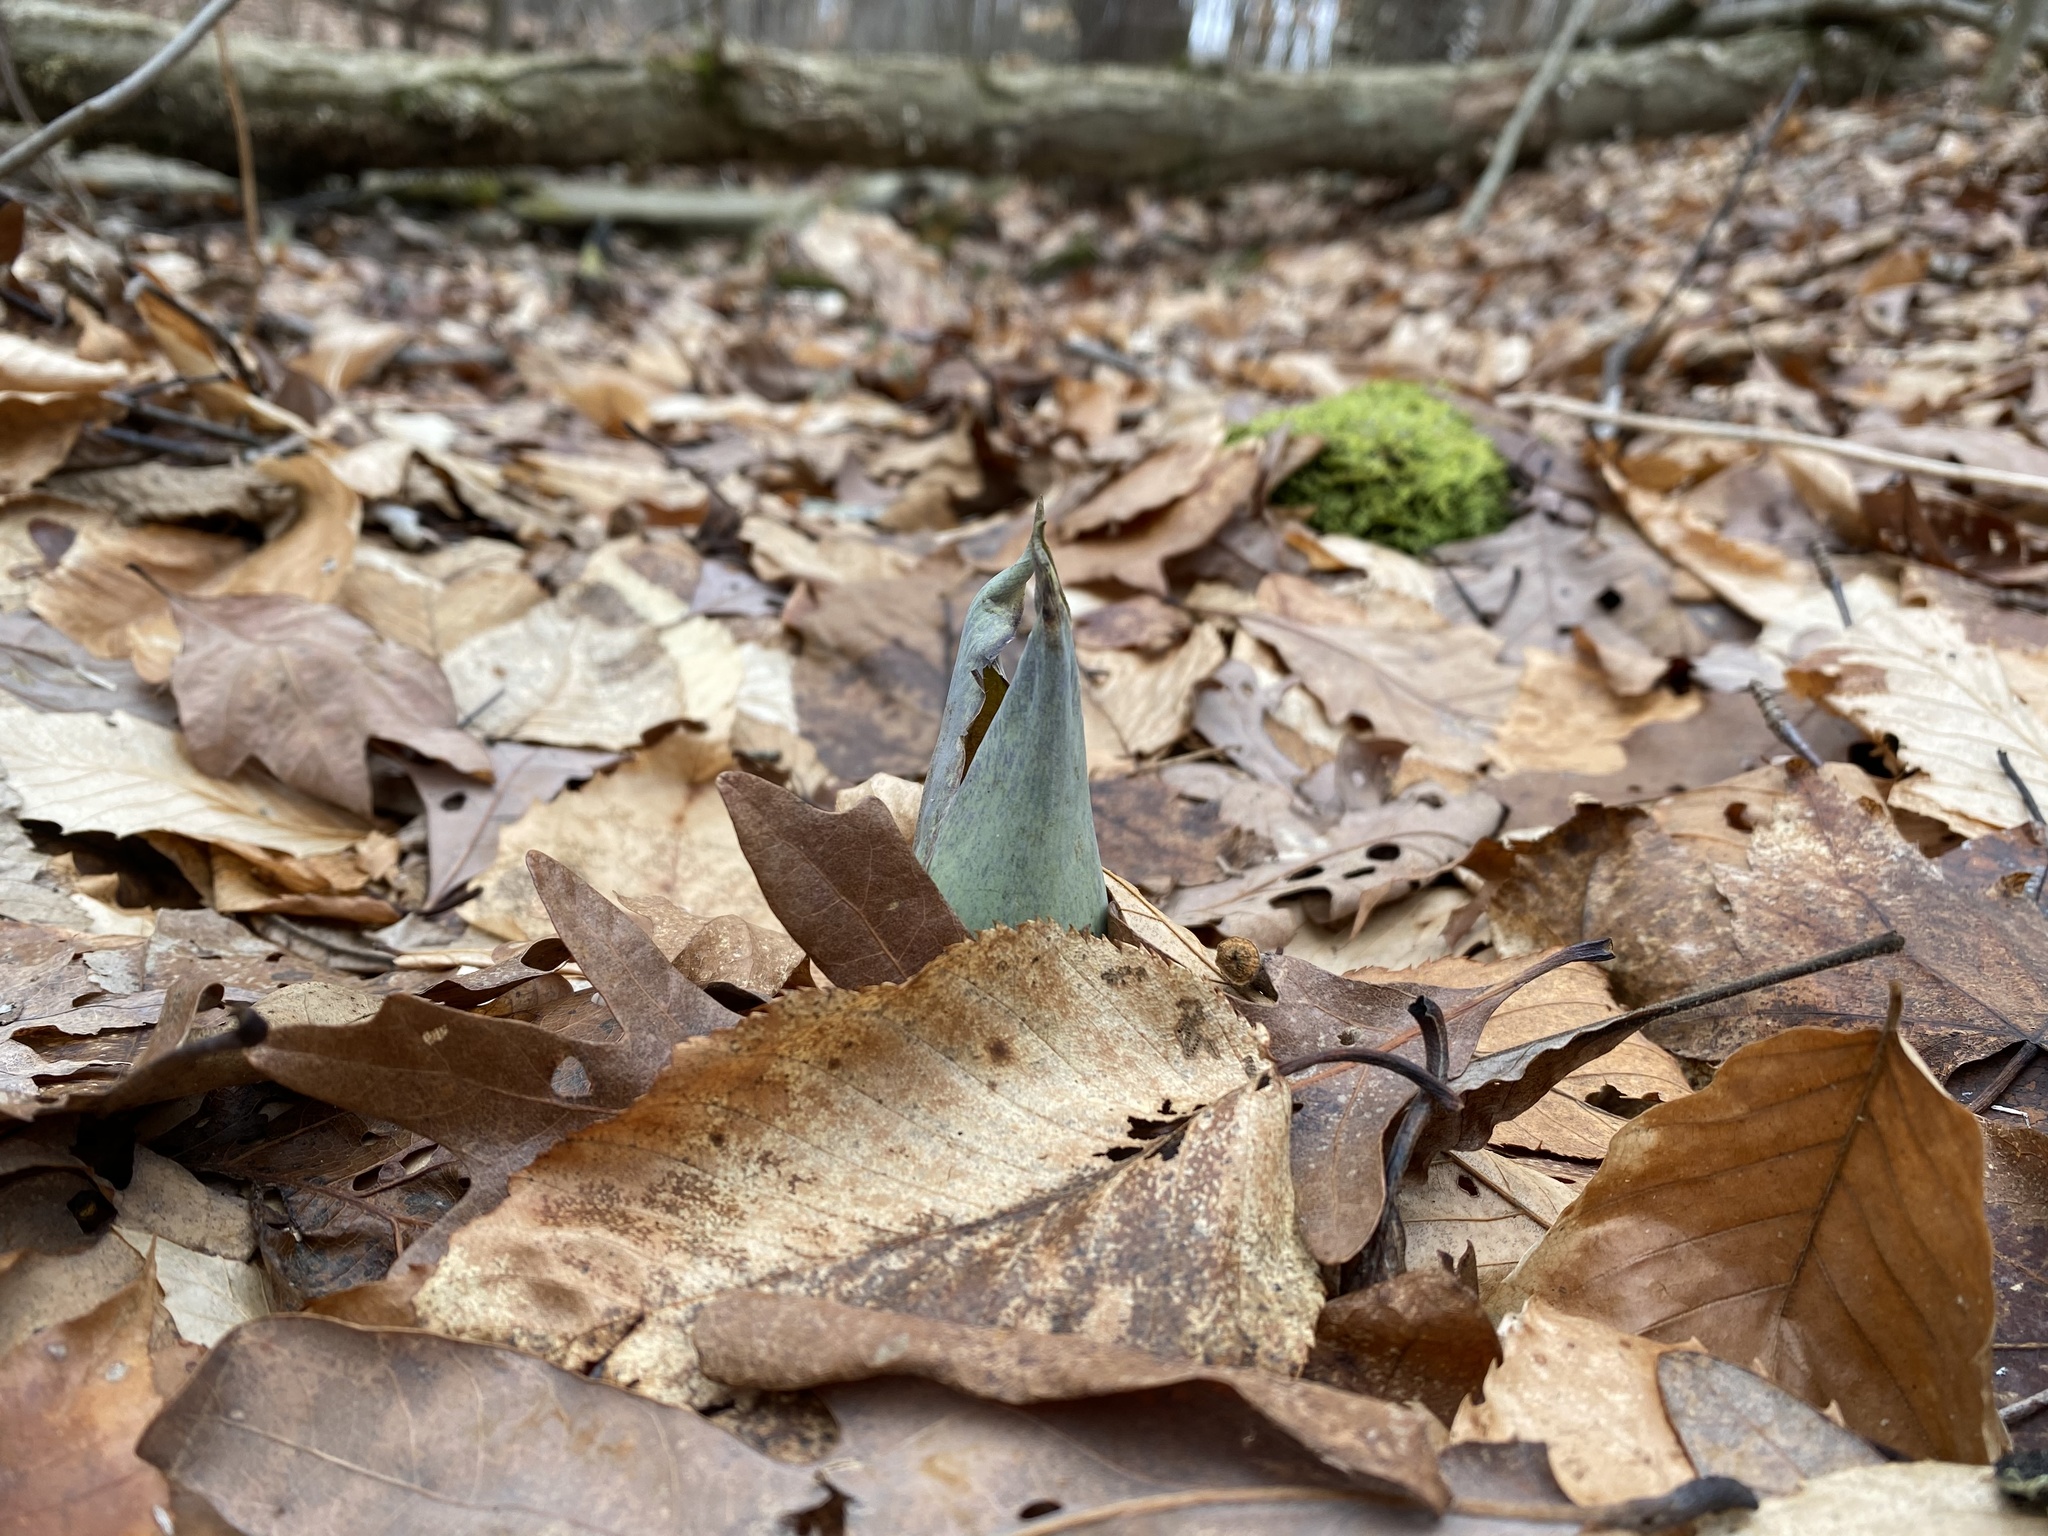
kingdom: Plantae
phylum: Tracheophyta
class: Liliopsida
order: Alismatales
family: Araceae
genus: Symplocarpus
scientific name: Symplocarpus foetidus
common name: Eastern skunk cabbage
